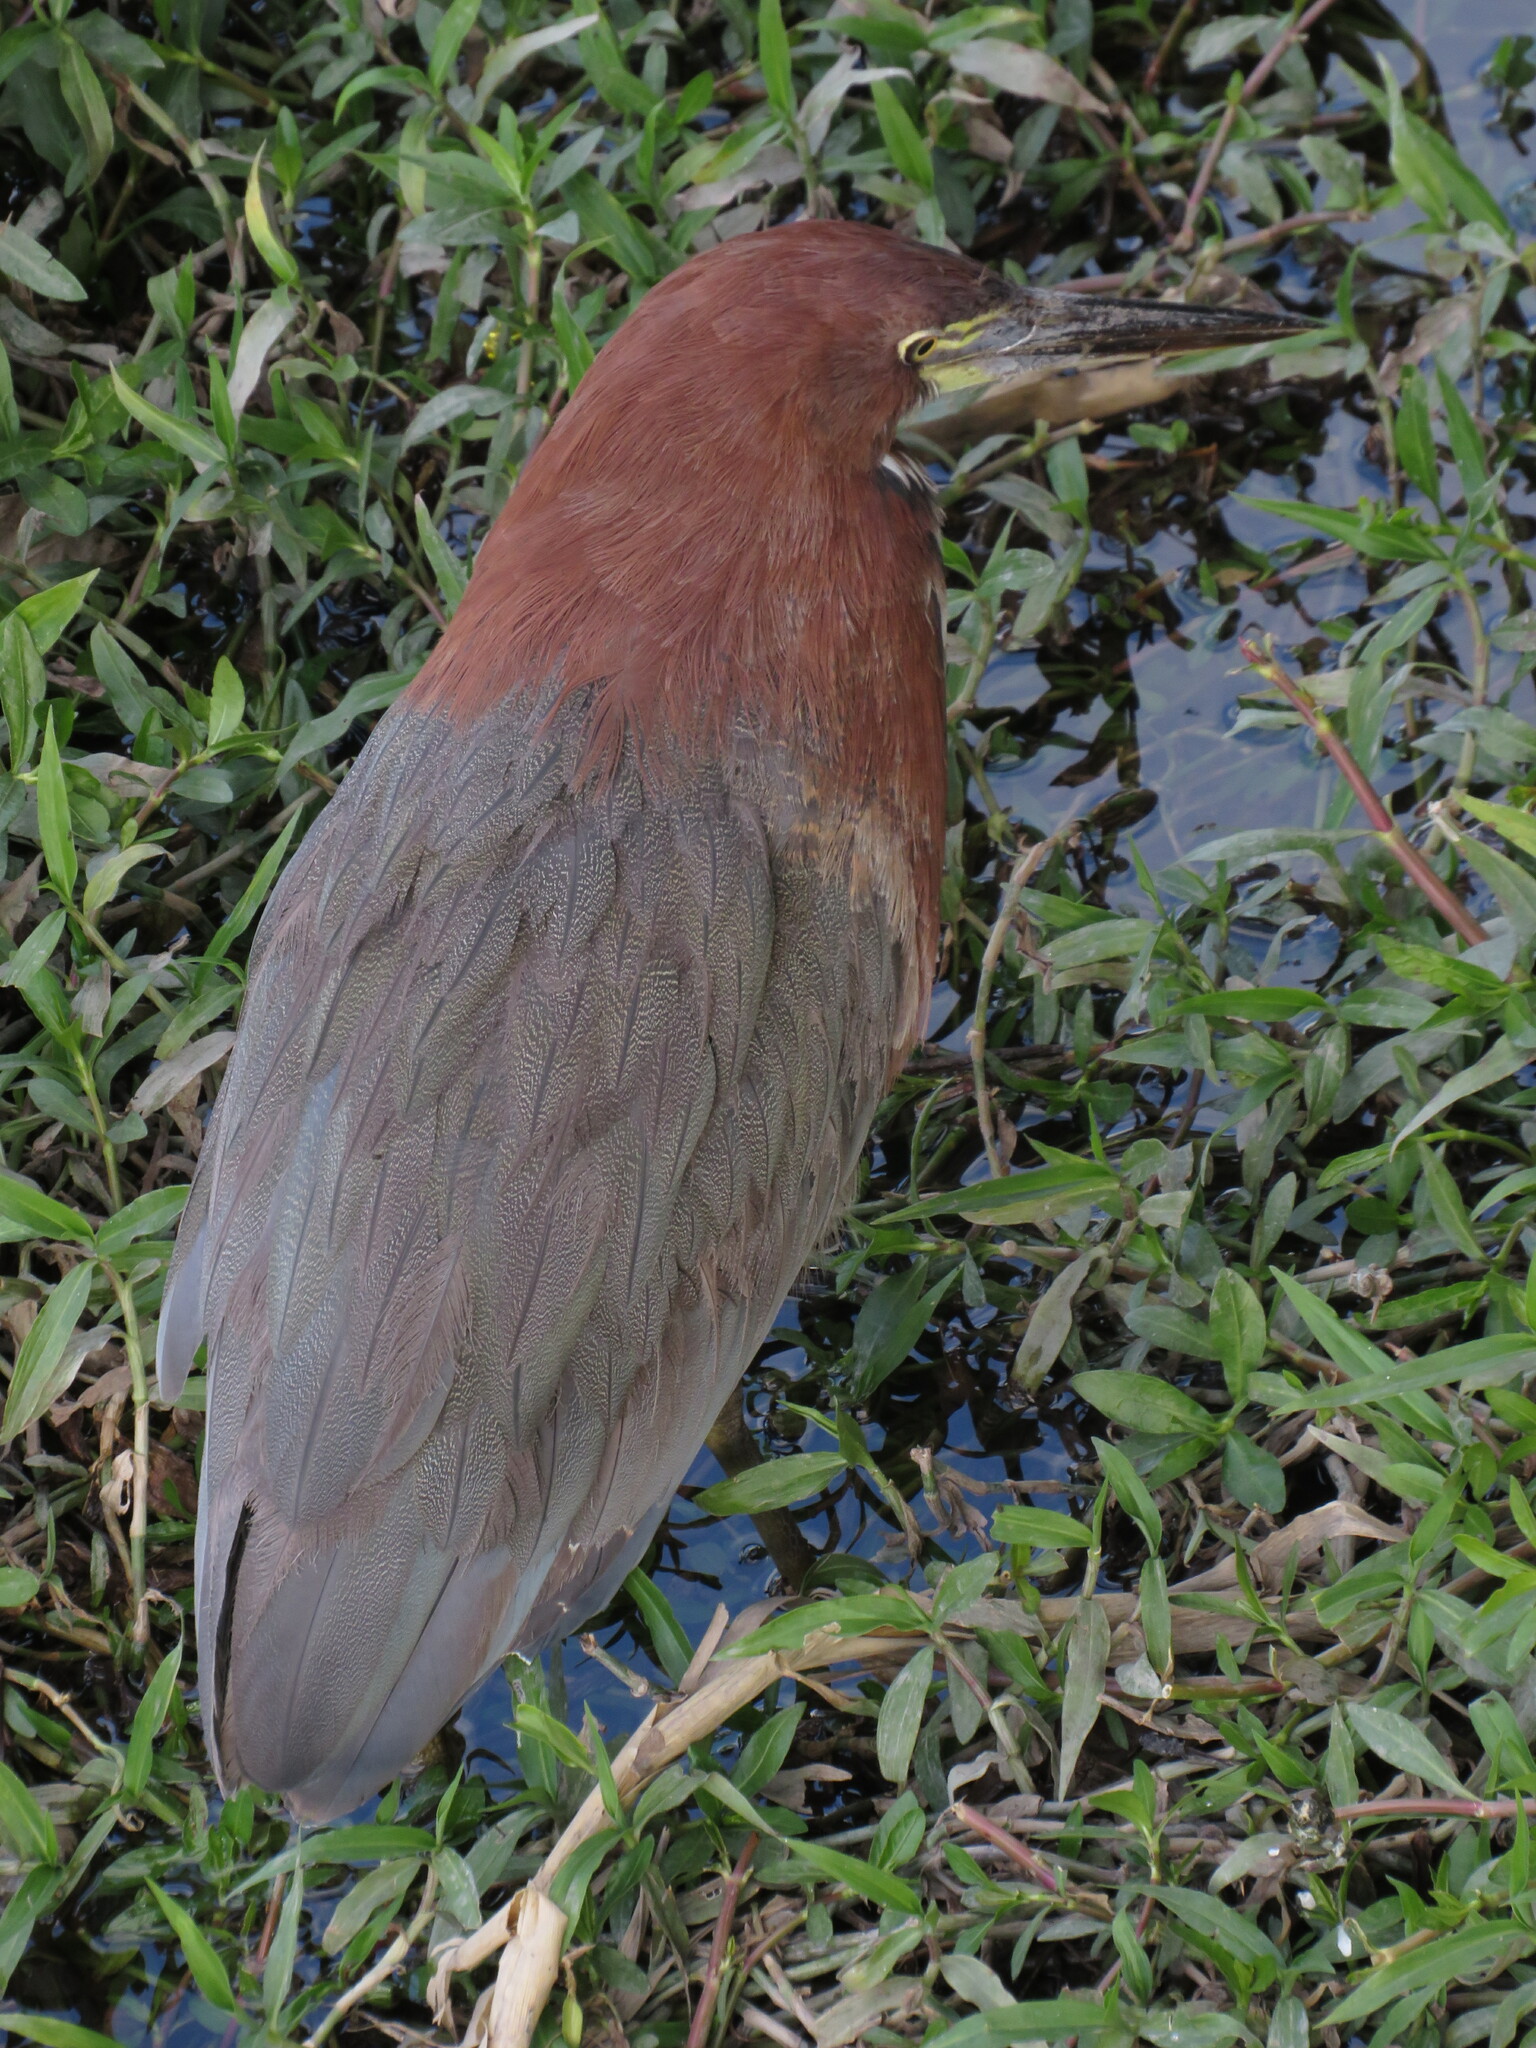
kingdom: Animalia
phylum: Chordata
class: Aves
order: Pelecaniformes
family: Ardeidae
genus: Tigrisoma
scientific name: Tigrisoma lineatum
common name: Rufescent tiger-heron
